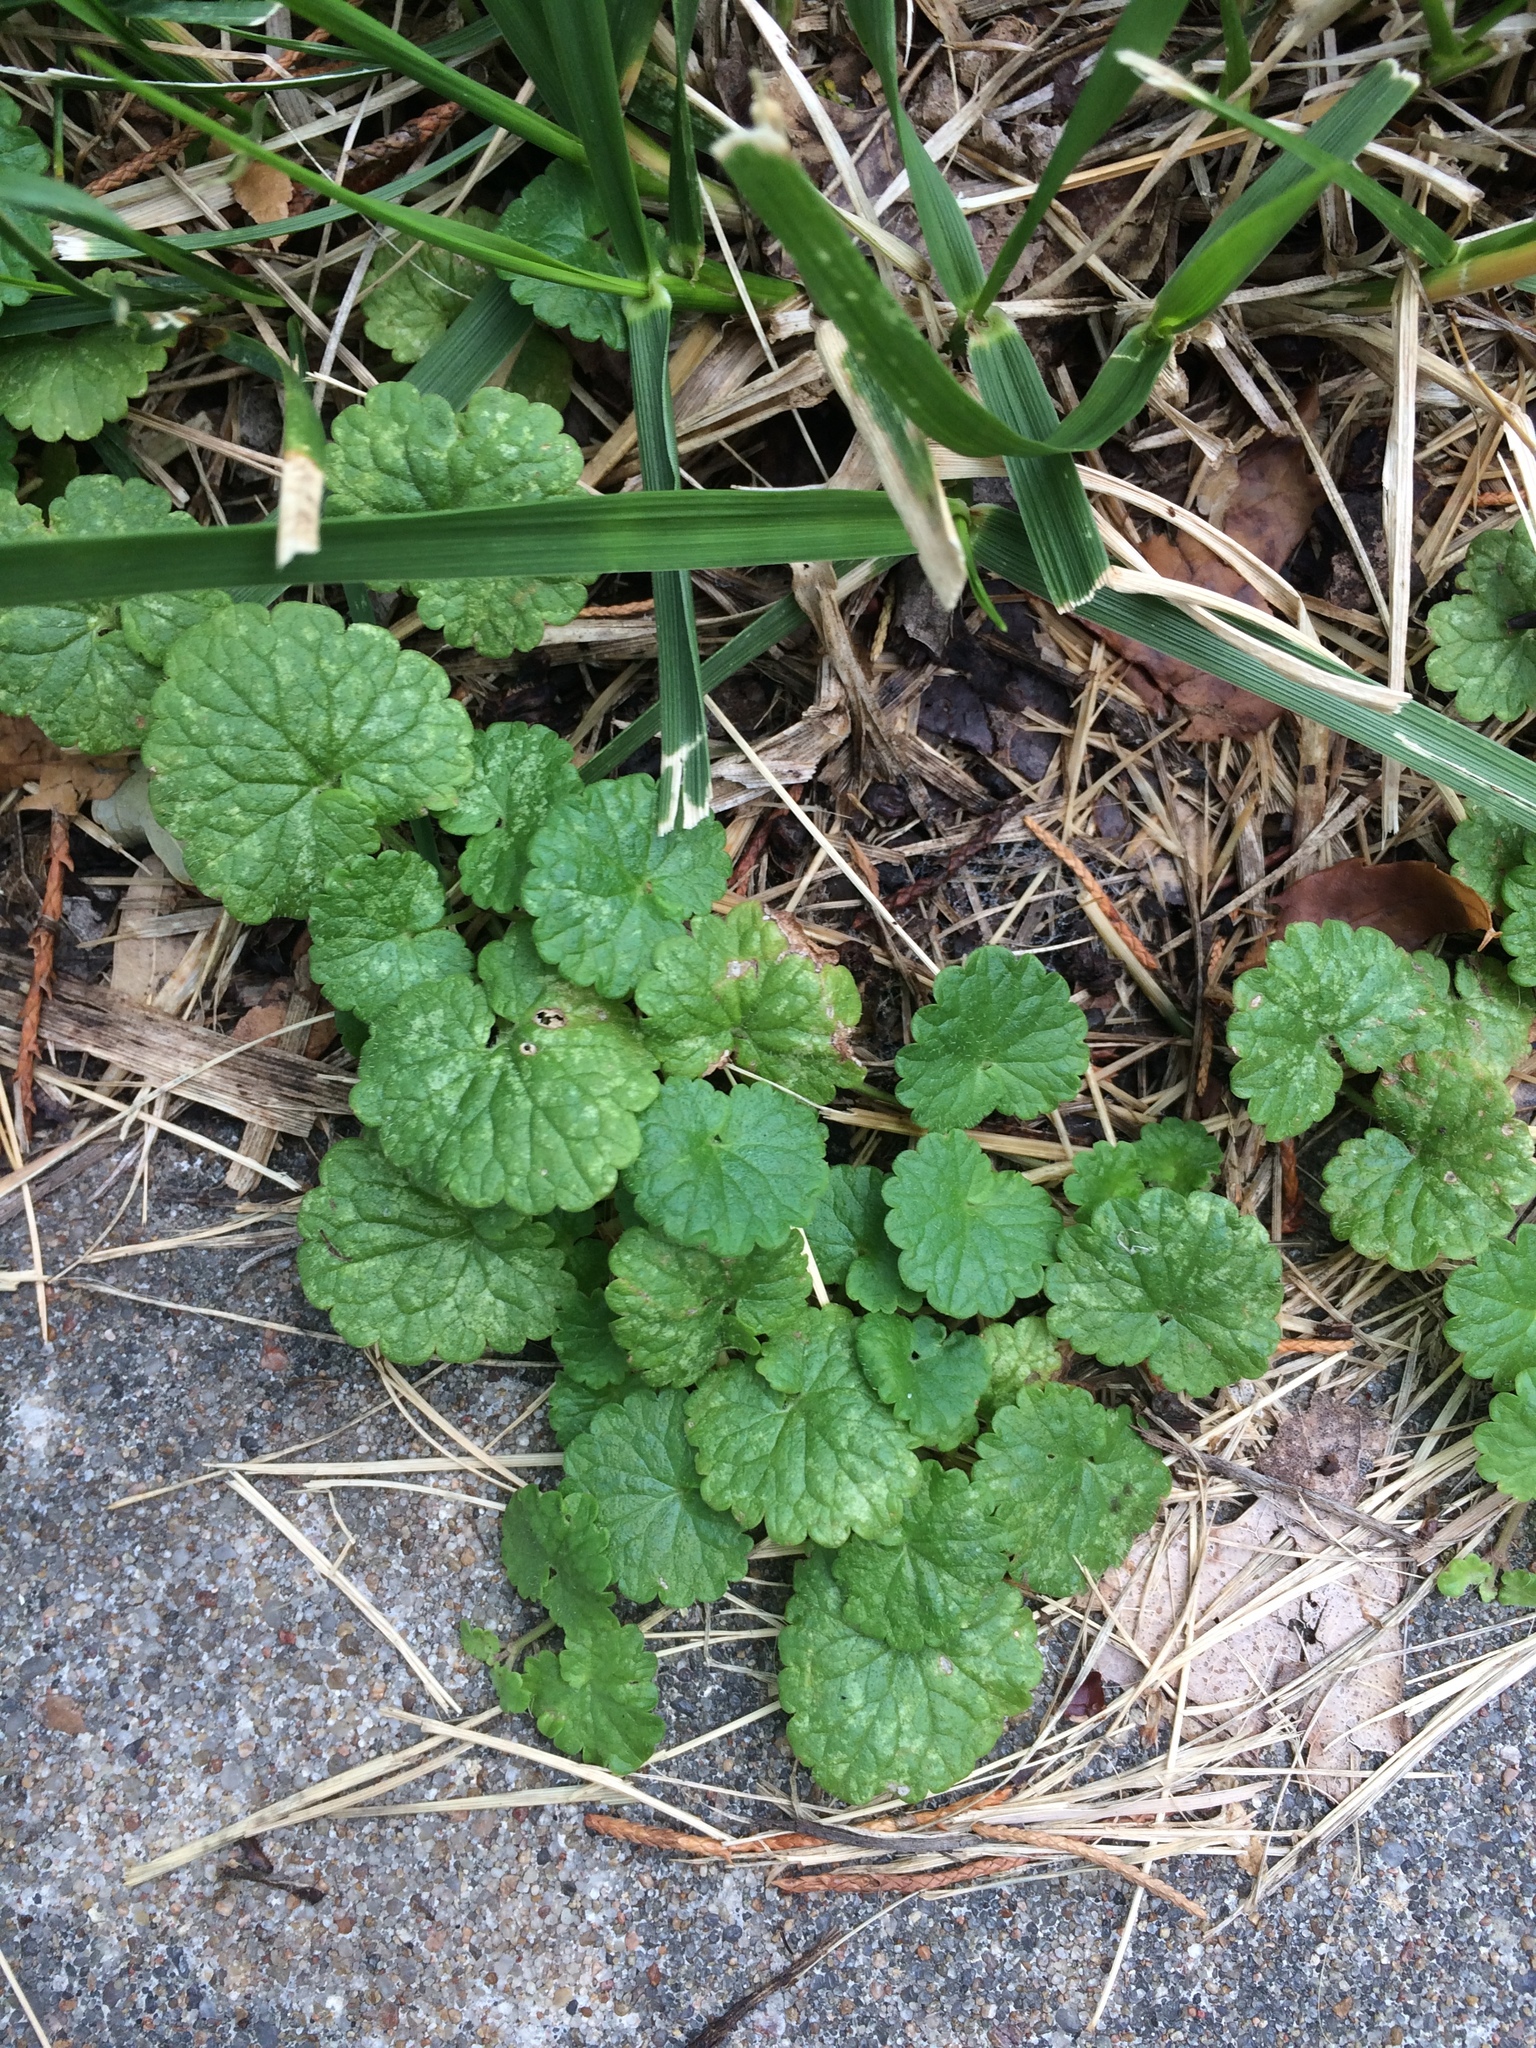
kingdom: Plantae
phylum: Tracheophyta
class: Magnoliopsida
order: Lamiales
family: Lamiaceae
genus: Glechoma
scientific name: Glechoma hederacea
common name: Ground ivy
